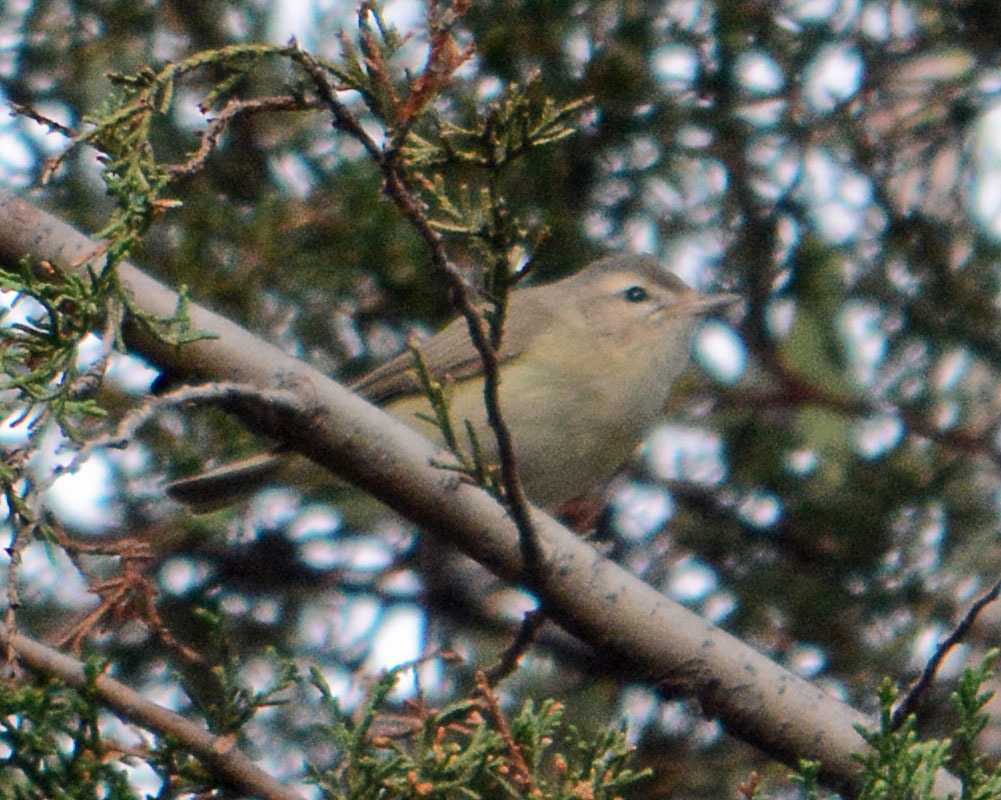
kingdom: Animalia
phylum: Chordata
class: Aves
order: Passeriformes
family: Vireonidae
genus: Vireo
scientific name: Vireo gilvus
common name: Warbling vireo
